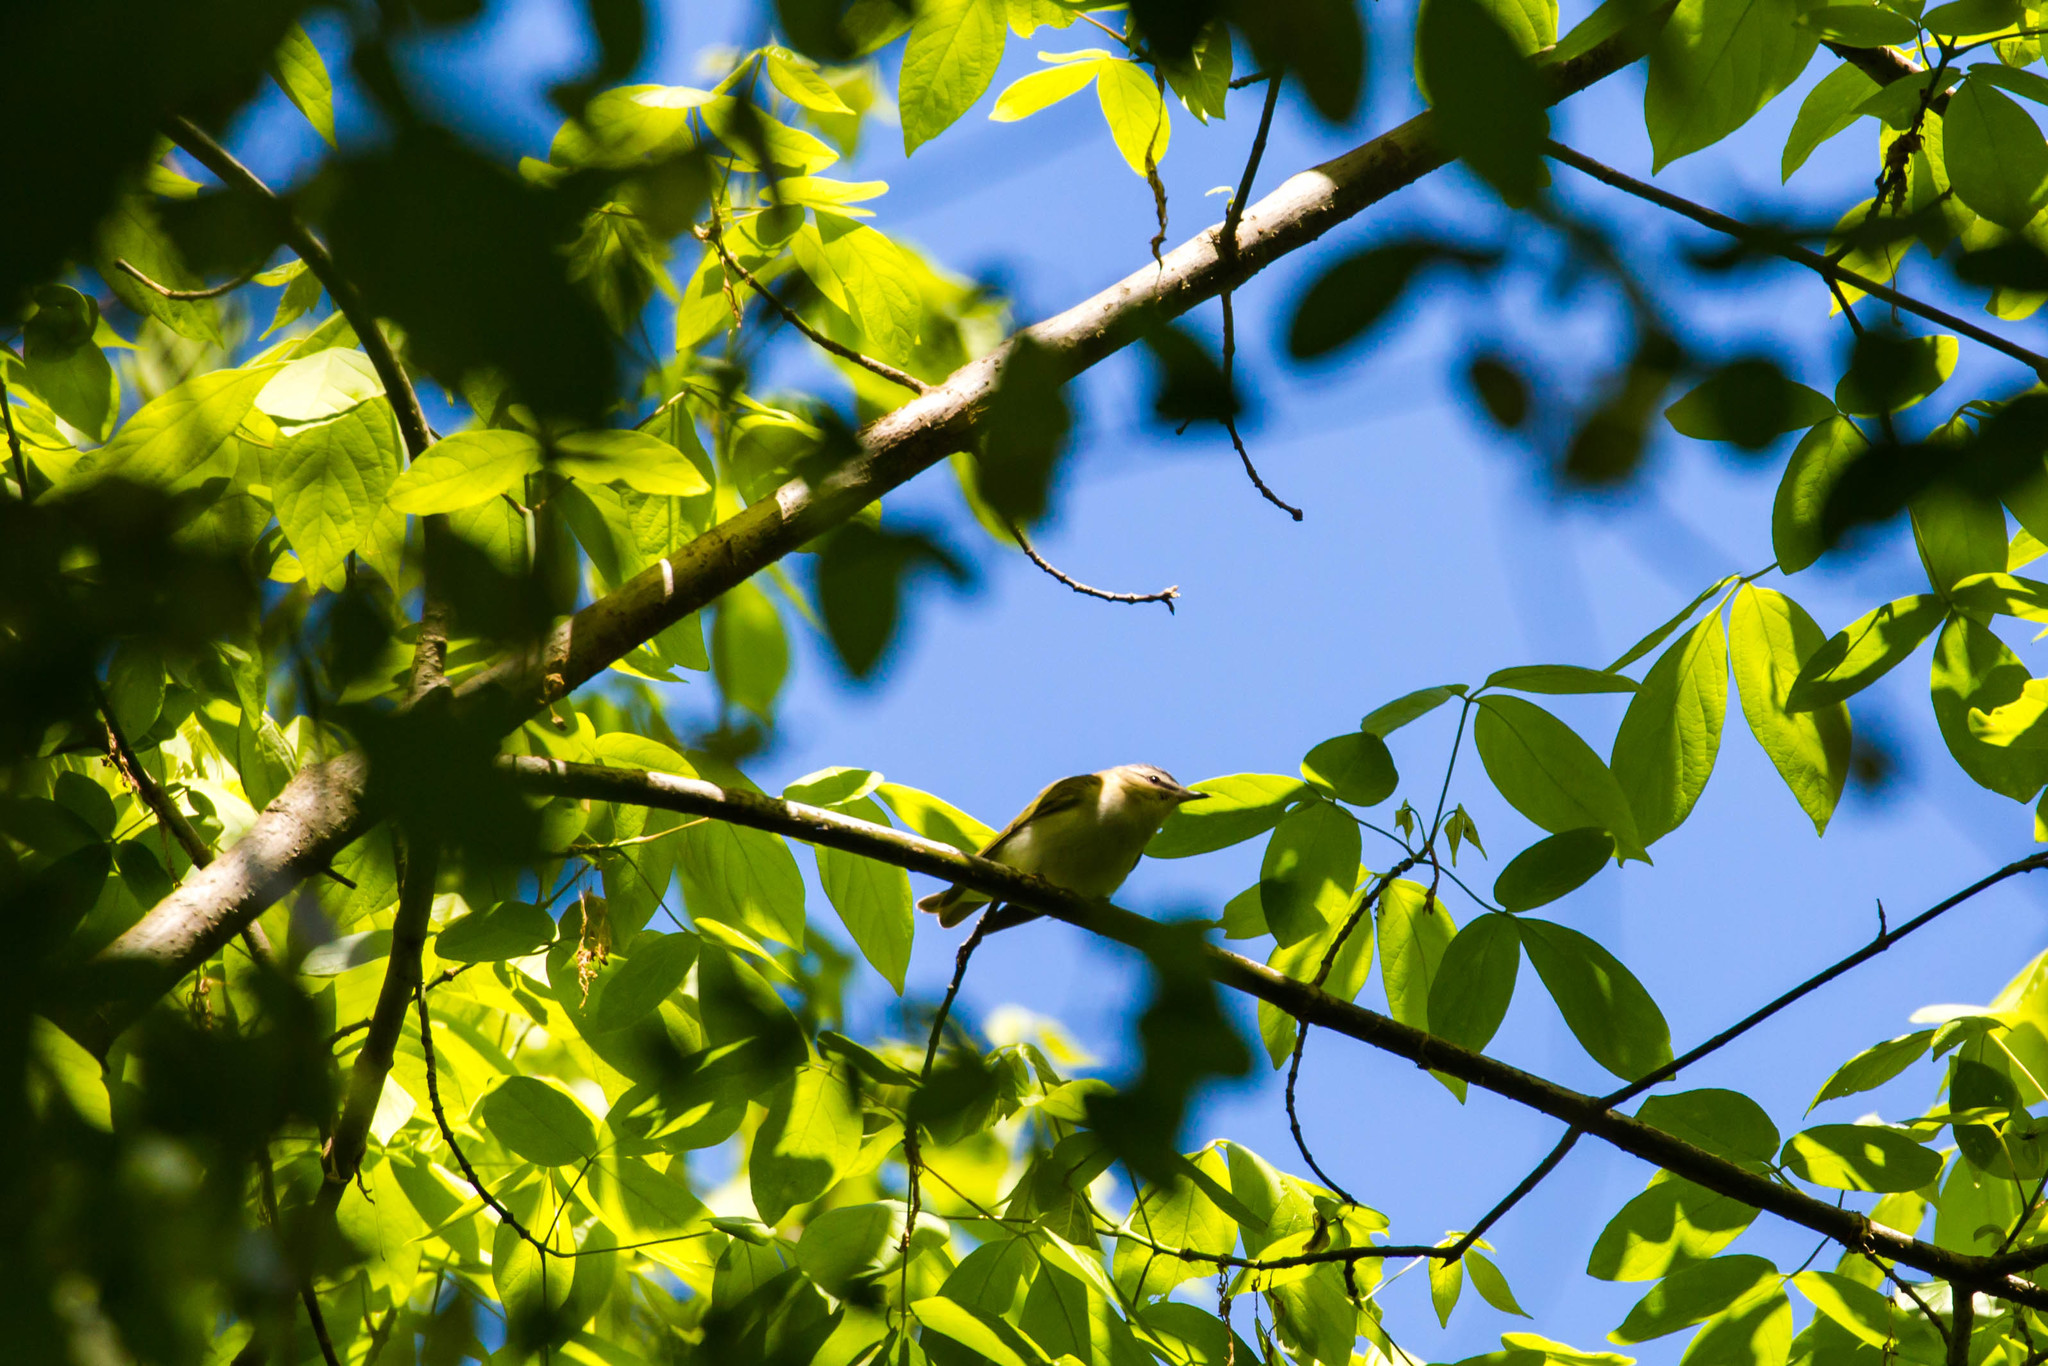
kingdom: Animalia
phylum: Chordata
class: Aves
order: Passeriformes
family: Vireonidae
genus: Vireo
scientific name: Vireo olivaceus
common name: Red-eyed vireo
